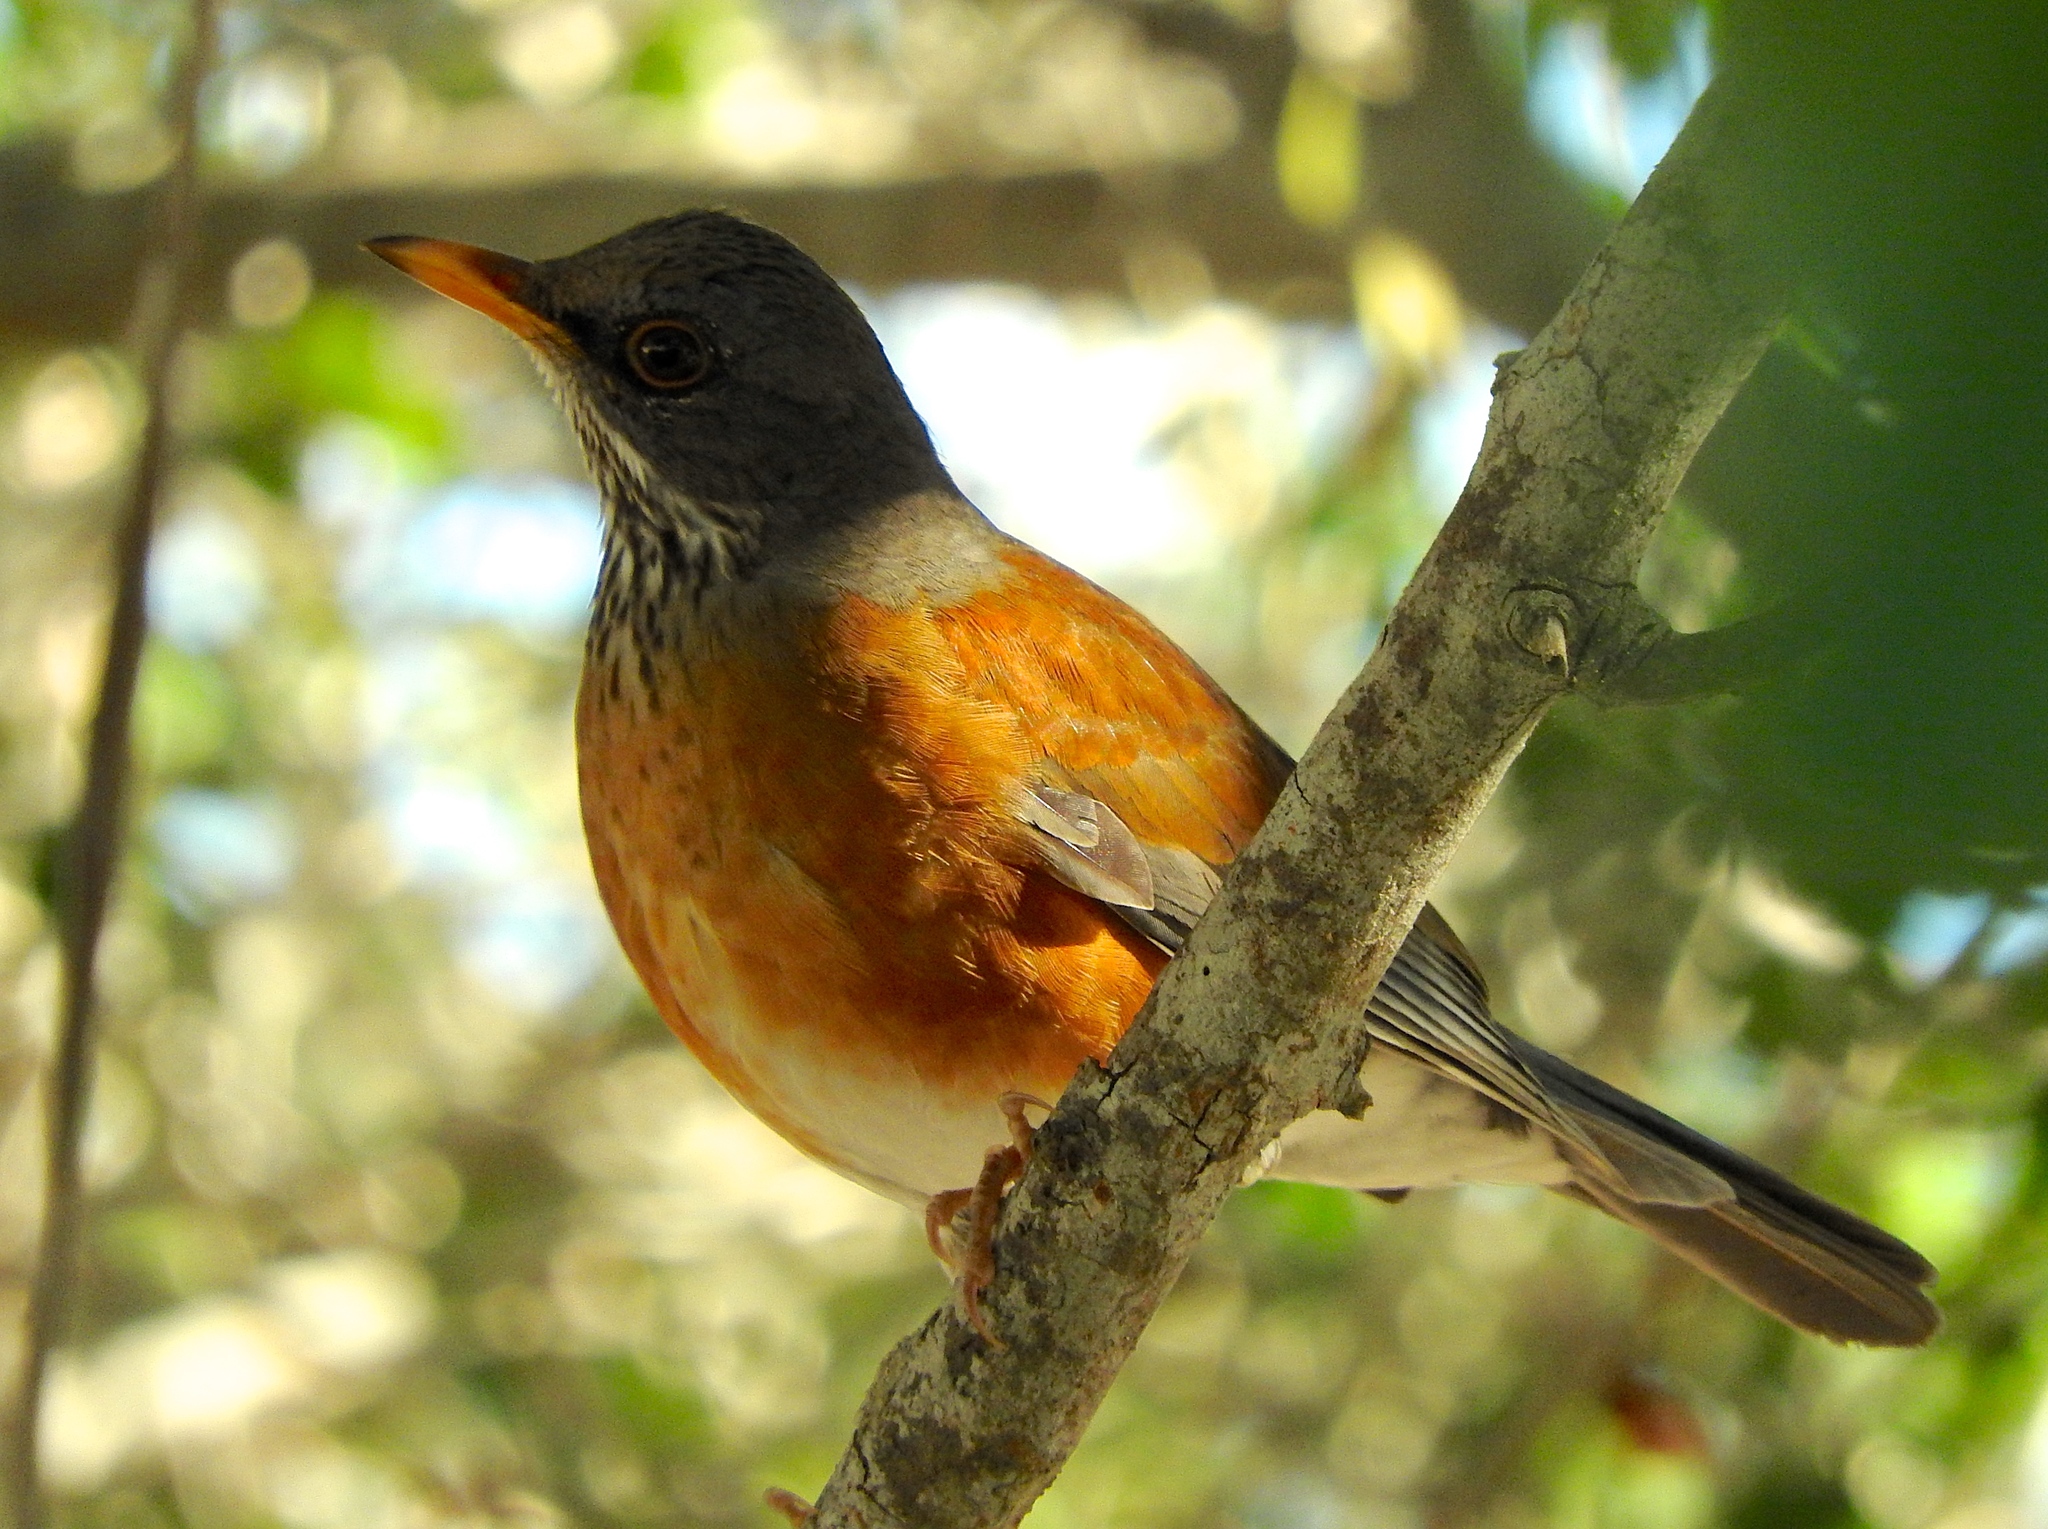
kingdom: Animalia
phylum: Chordata
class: Aves
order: Passeriformes
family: Turdidae
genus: Turdus
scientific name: Turdus rufopalliatus
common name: Rufous-backed robin
